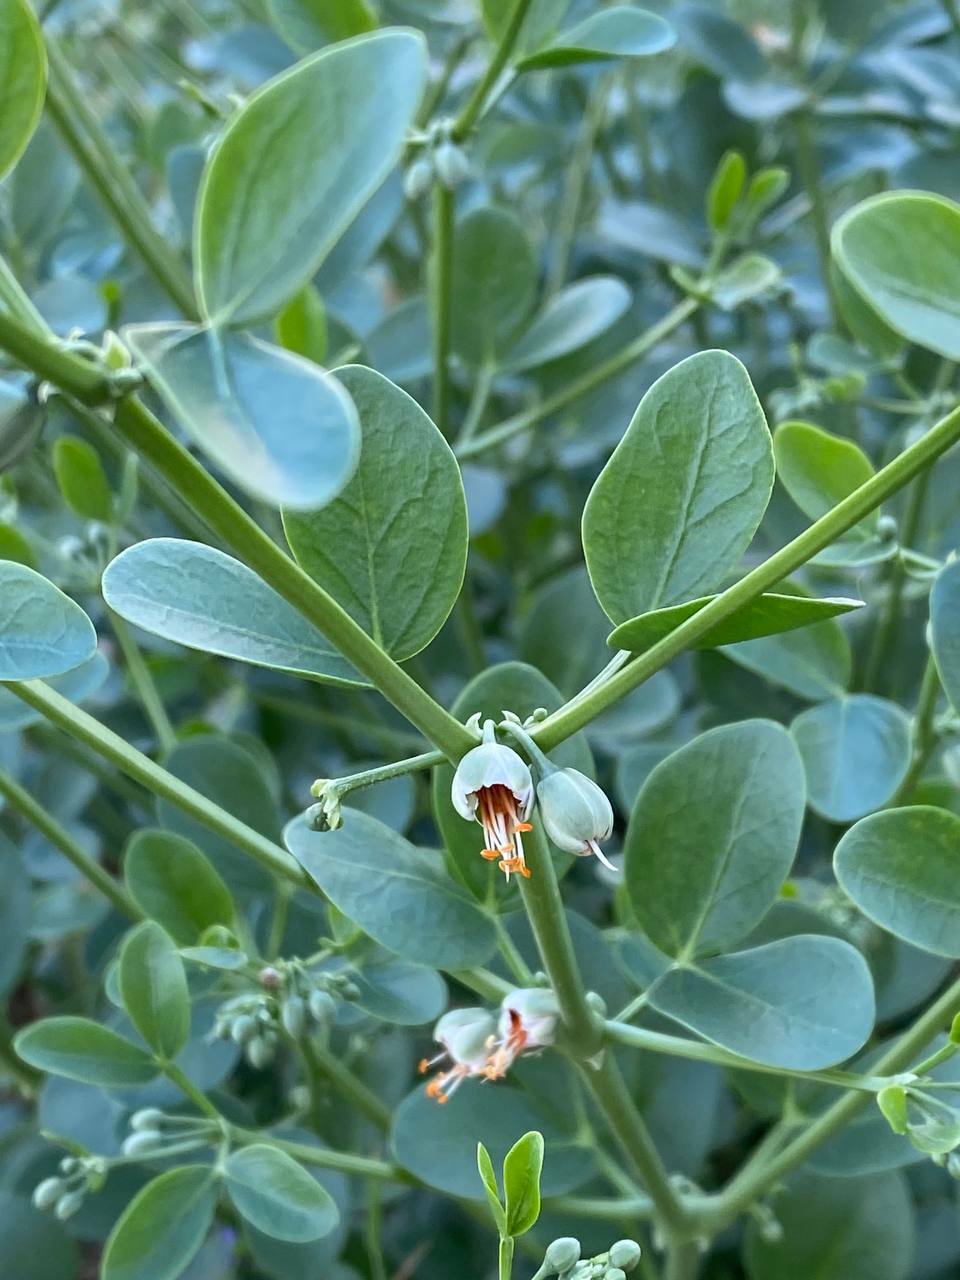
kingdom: Plantae
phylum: Tracheophyta
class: Magnoliopsida
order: Zygophyllales
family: Zygophyllaceae
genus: Zygophyllum
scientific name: Zygophyllum fabago
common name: Syrian beancaper
